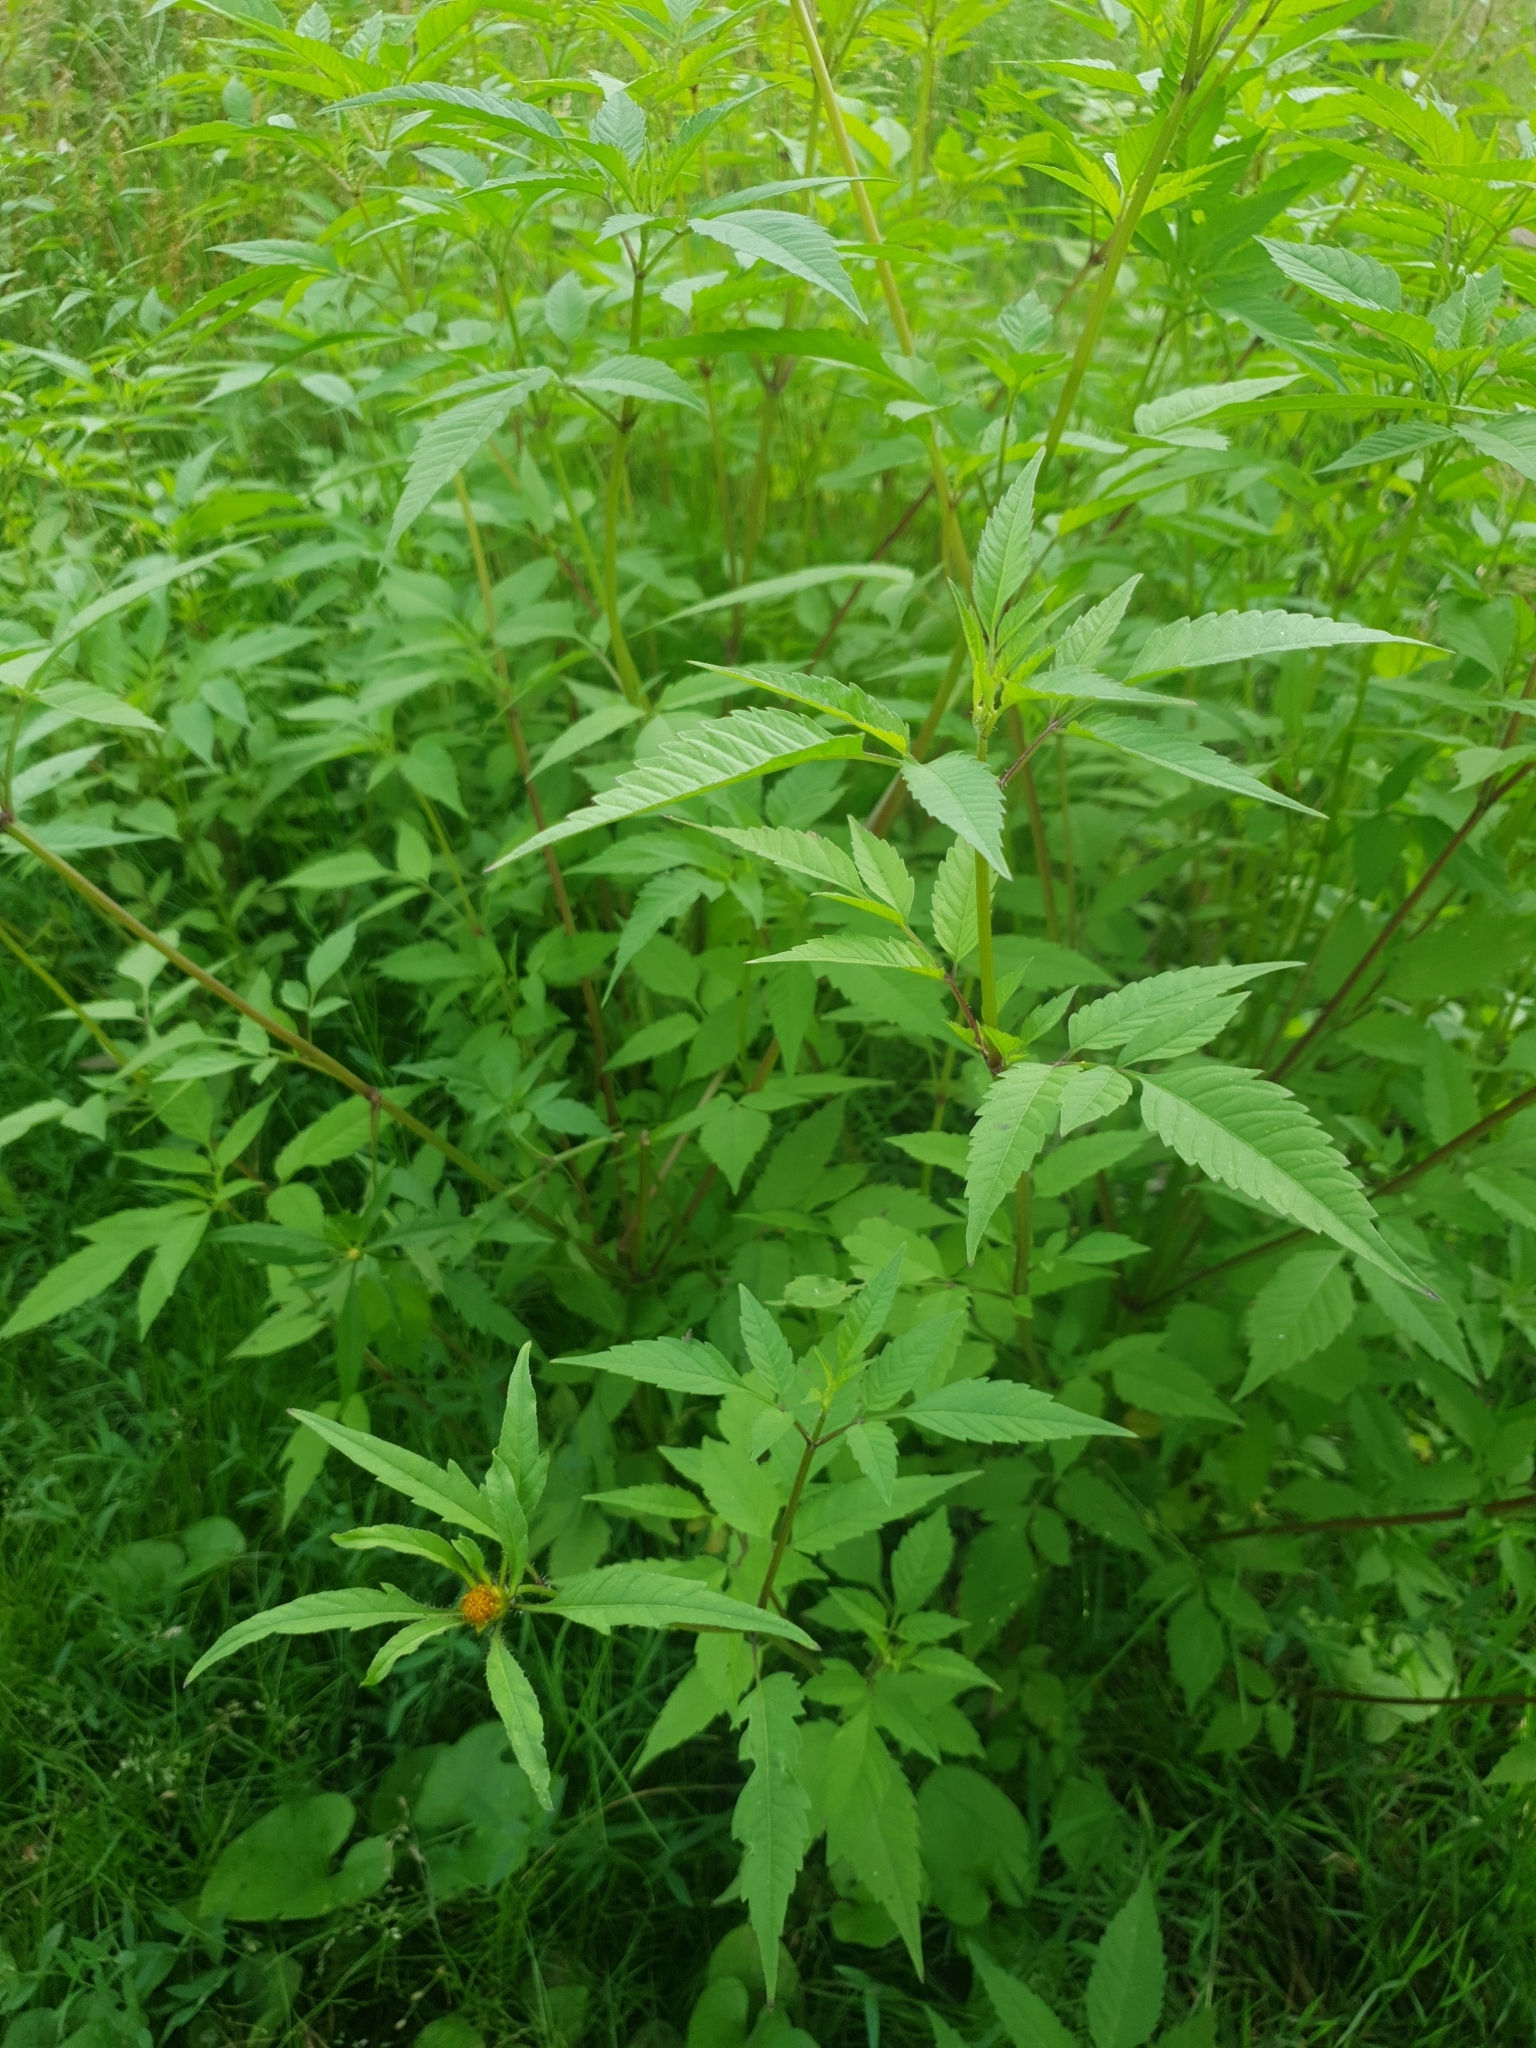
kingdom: Plantae
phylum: Tracheophyta
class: Magnoliopsida
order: Asterales
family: Asteraceae
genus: Bidens
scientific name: Bidens frondosa
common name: Beggarticks
